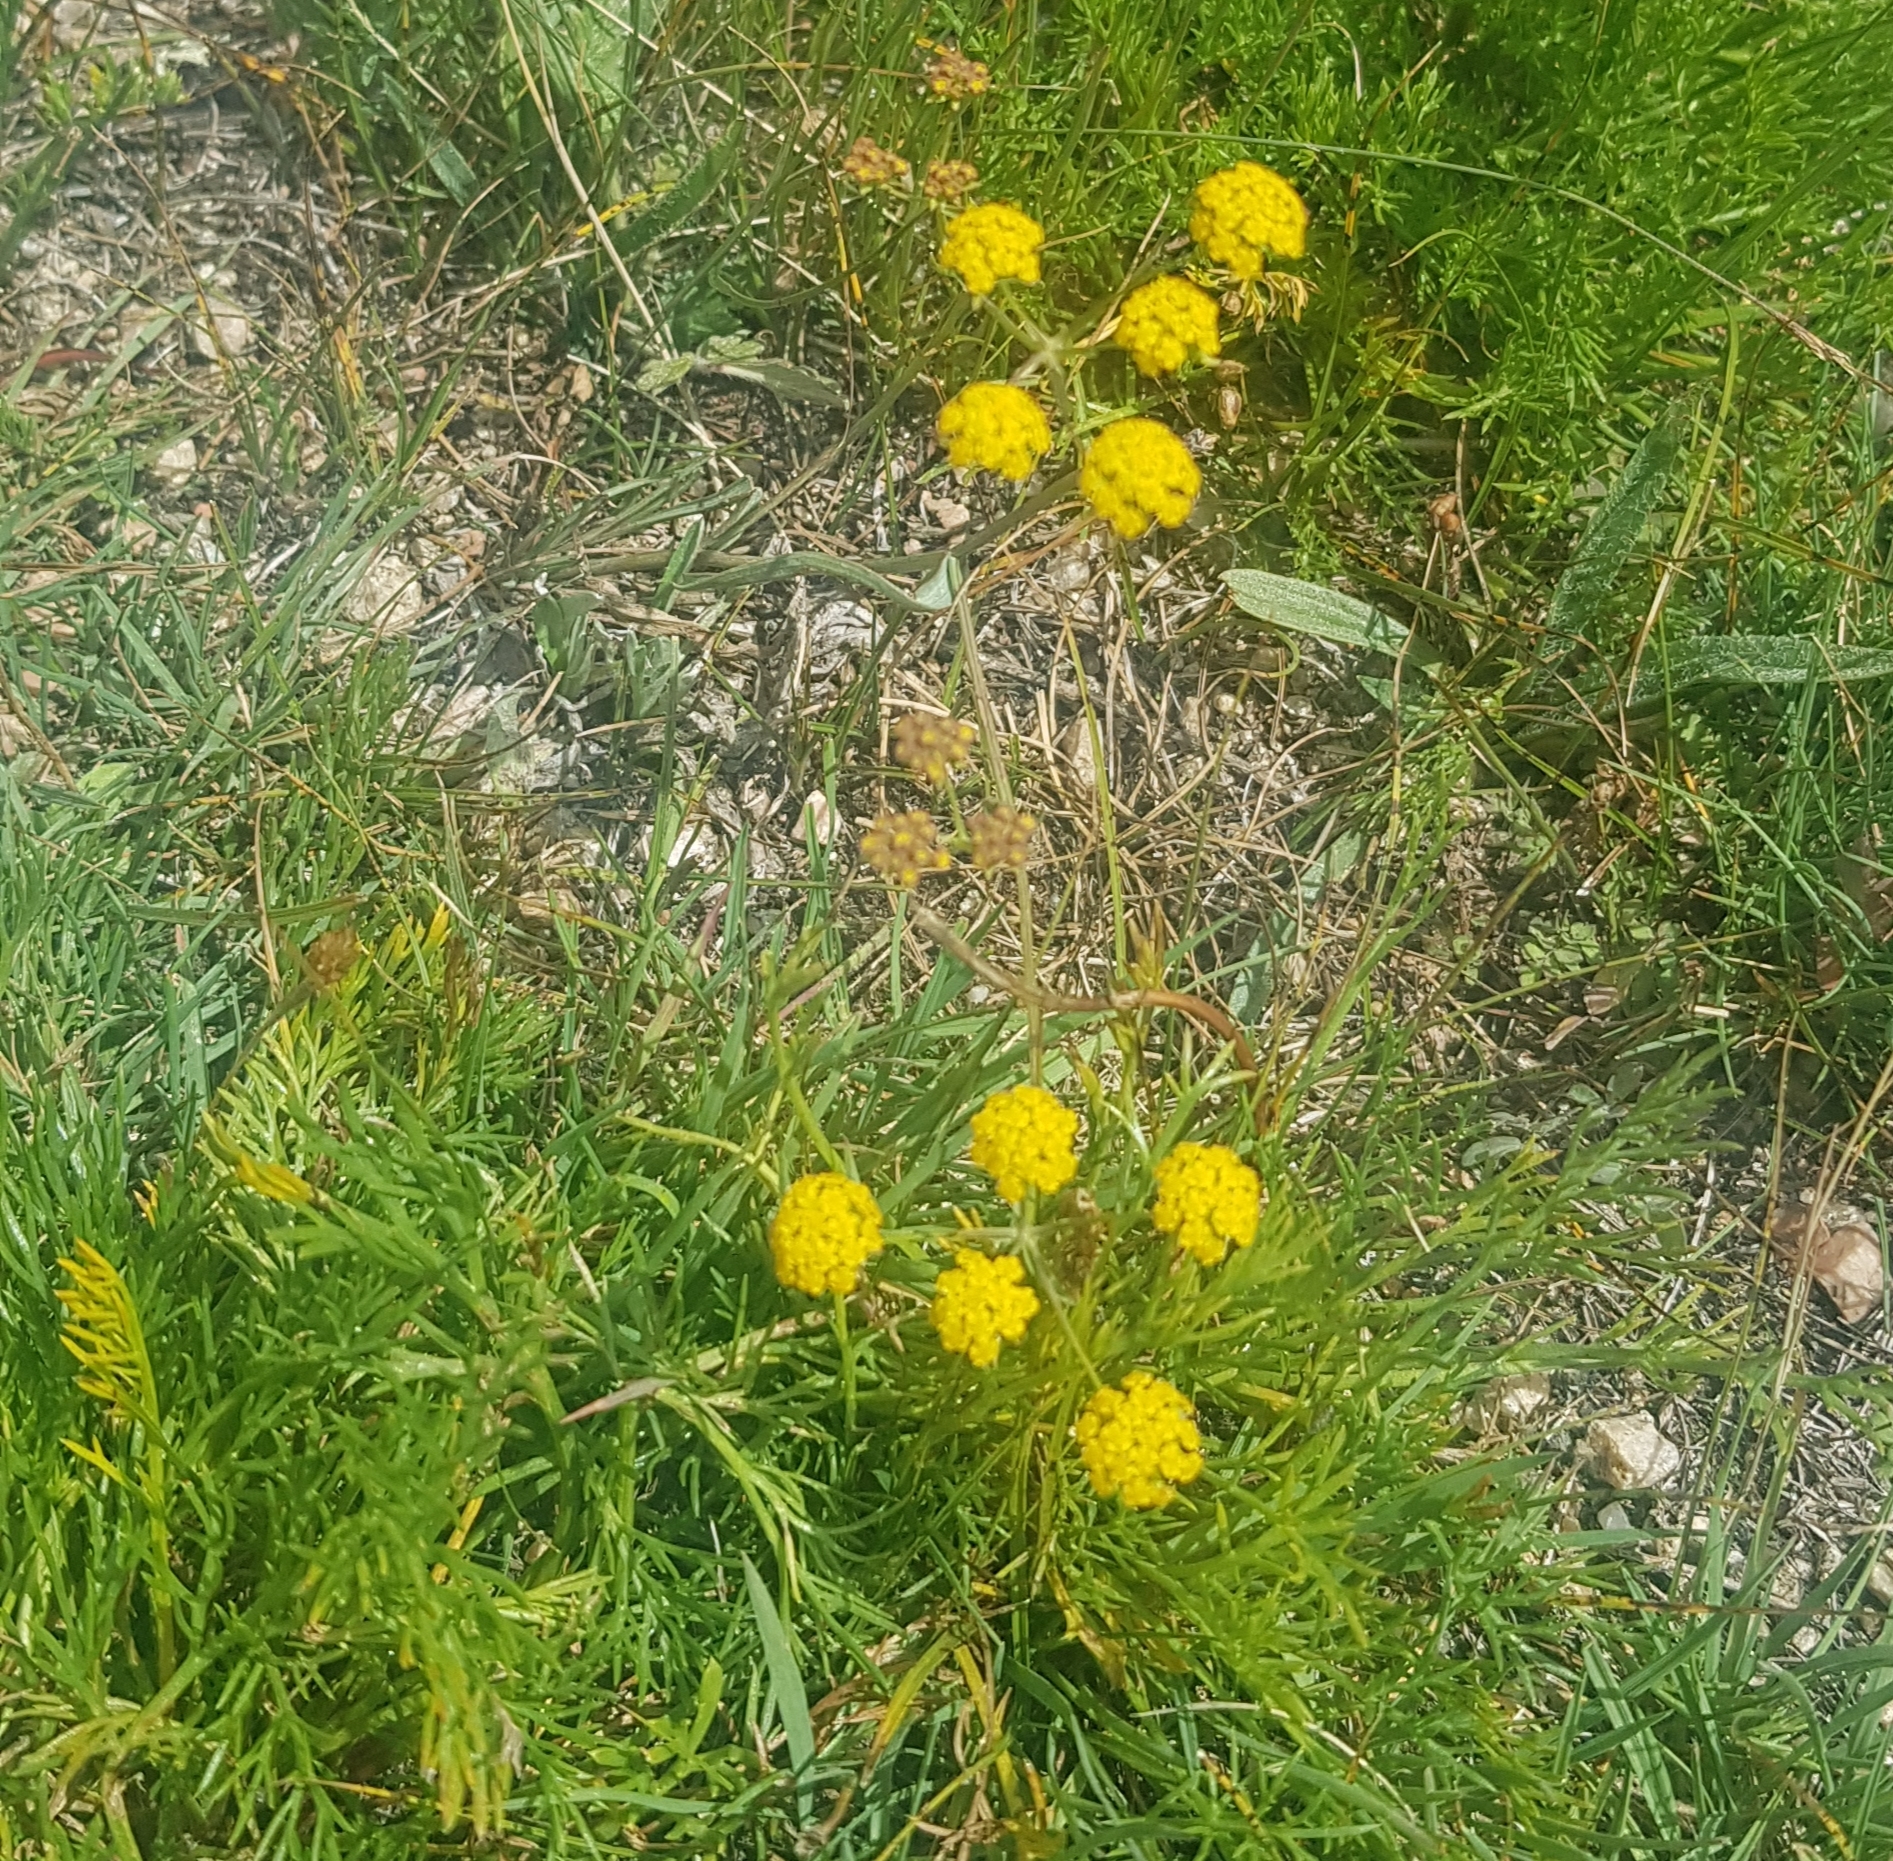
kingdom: Plantae
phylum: Tracheophyta
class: Magnoliopsida
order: Apiales
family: Apiaceae
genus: Bupleurum
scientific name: Bupleurum scorzonerifolium
